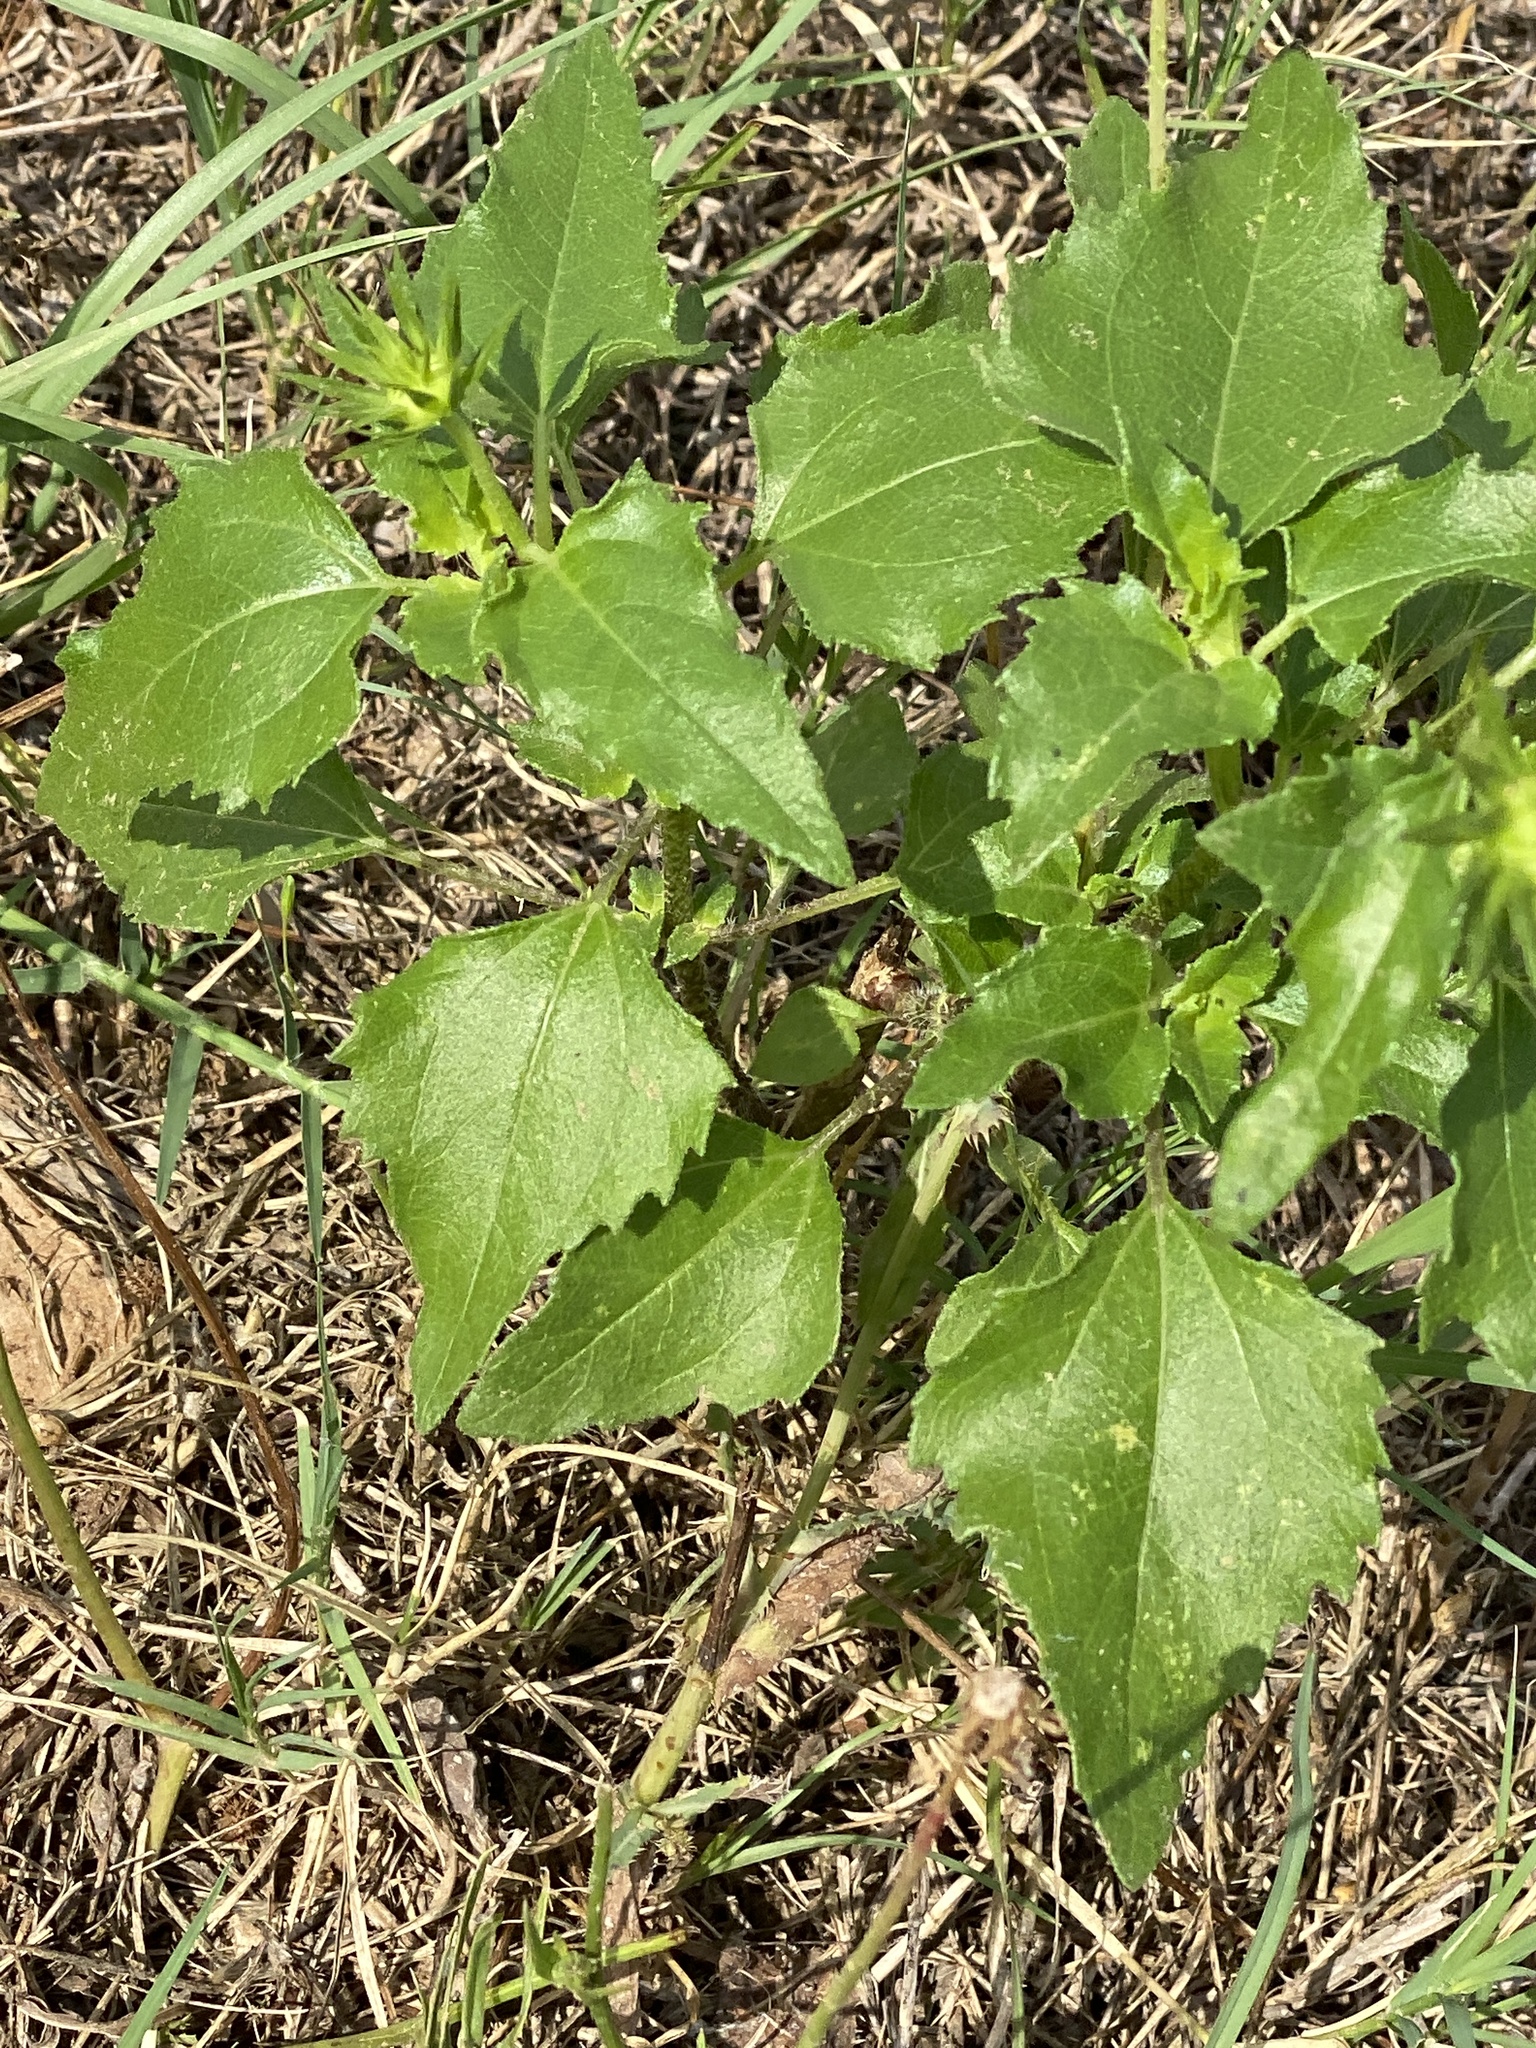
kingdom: Plantae
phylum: Tracheophyta
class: Magnoliopsida
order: Asterales
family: Asteraceae
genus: Helianthus
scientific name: Helianthus debilis
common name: Weak sunflower
